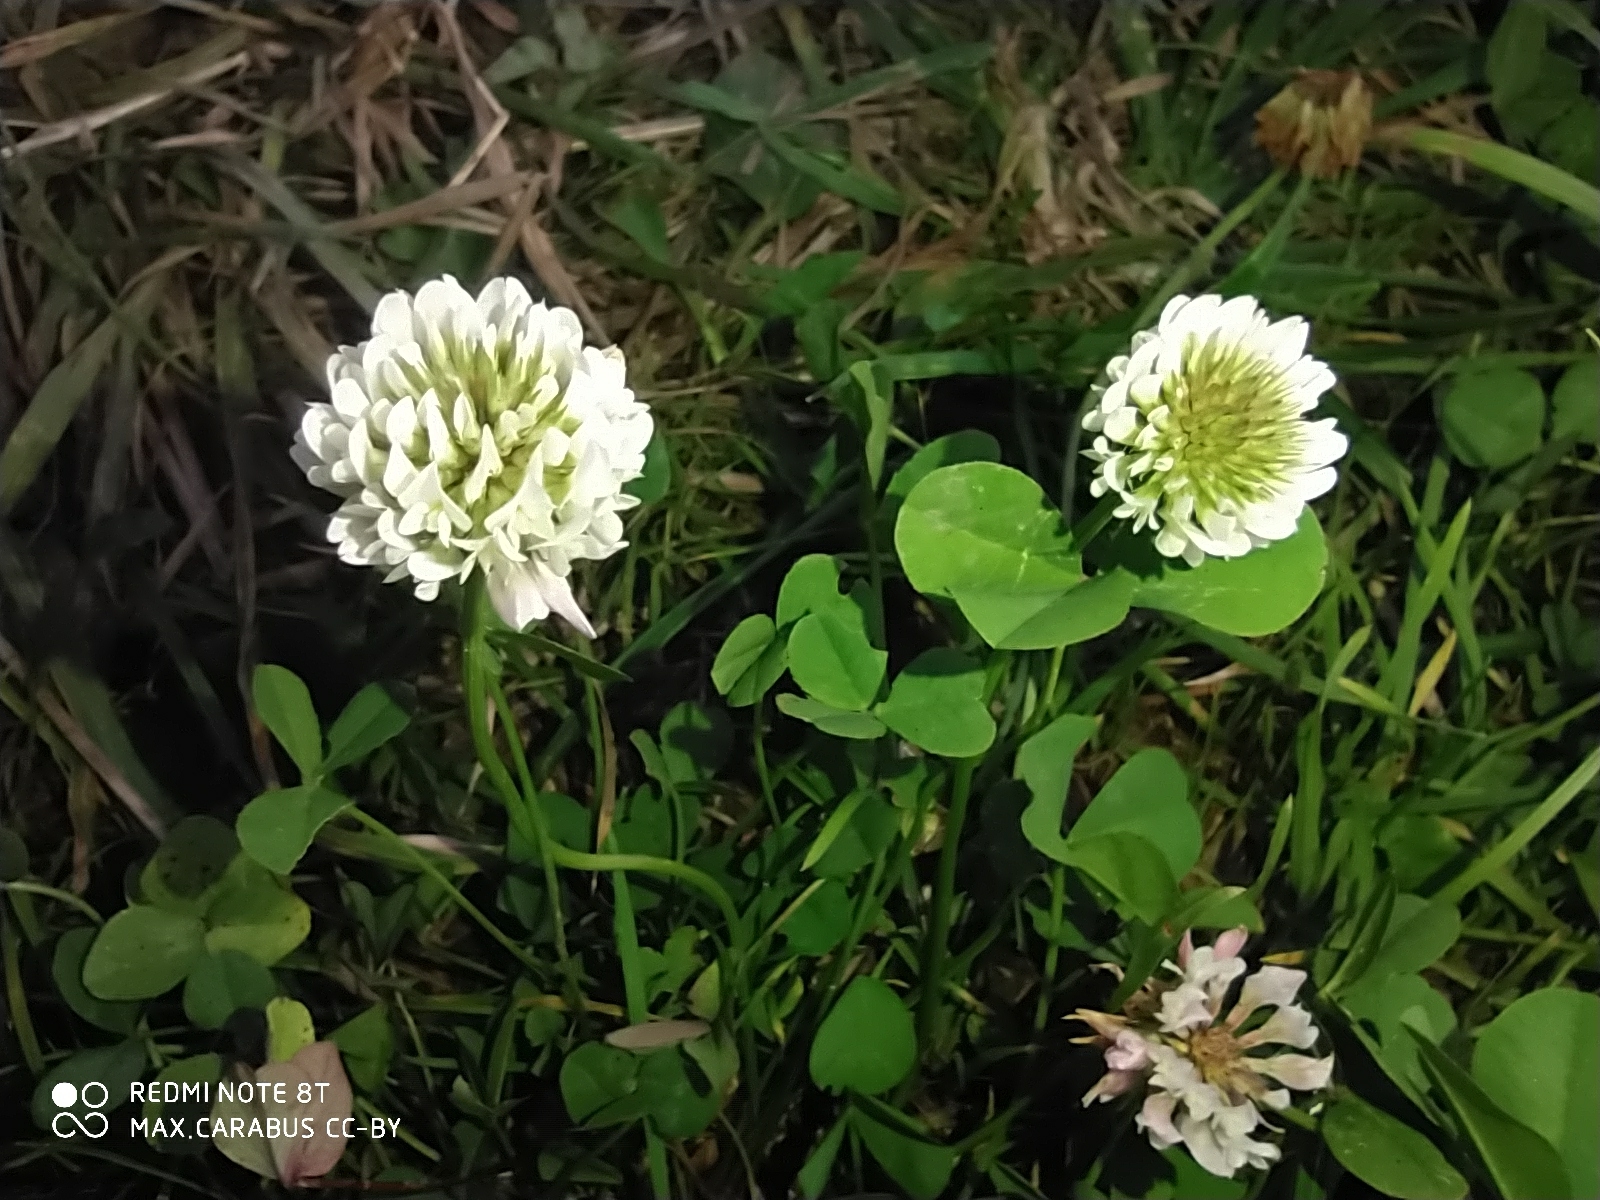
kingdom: Plantae
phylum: Tracheophyta
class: Magnoliopsida
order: Fabales
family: Fabaceae
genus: Trifolium
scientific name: Trifolium repens
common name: White clover
